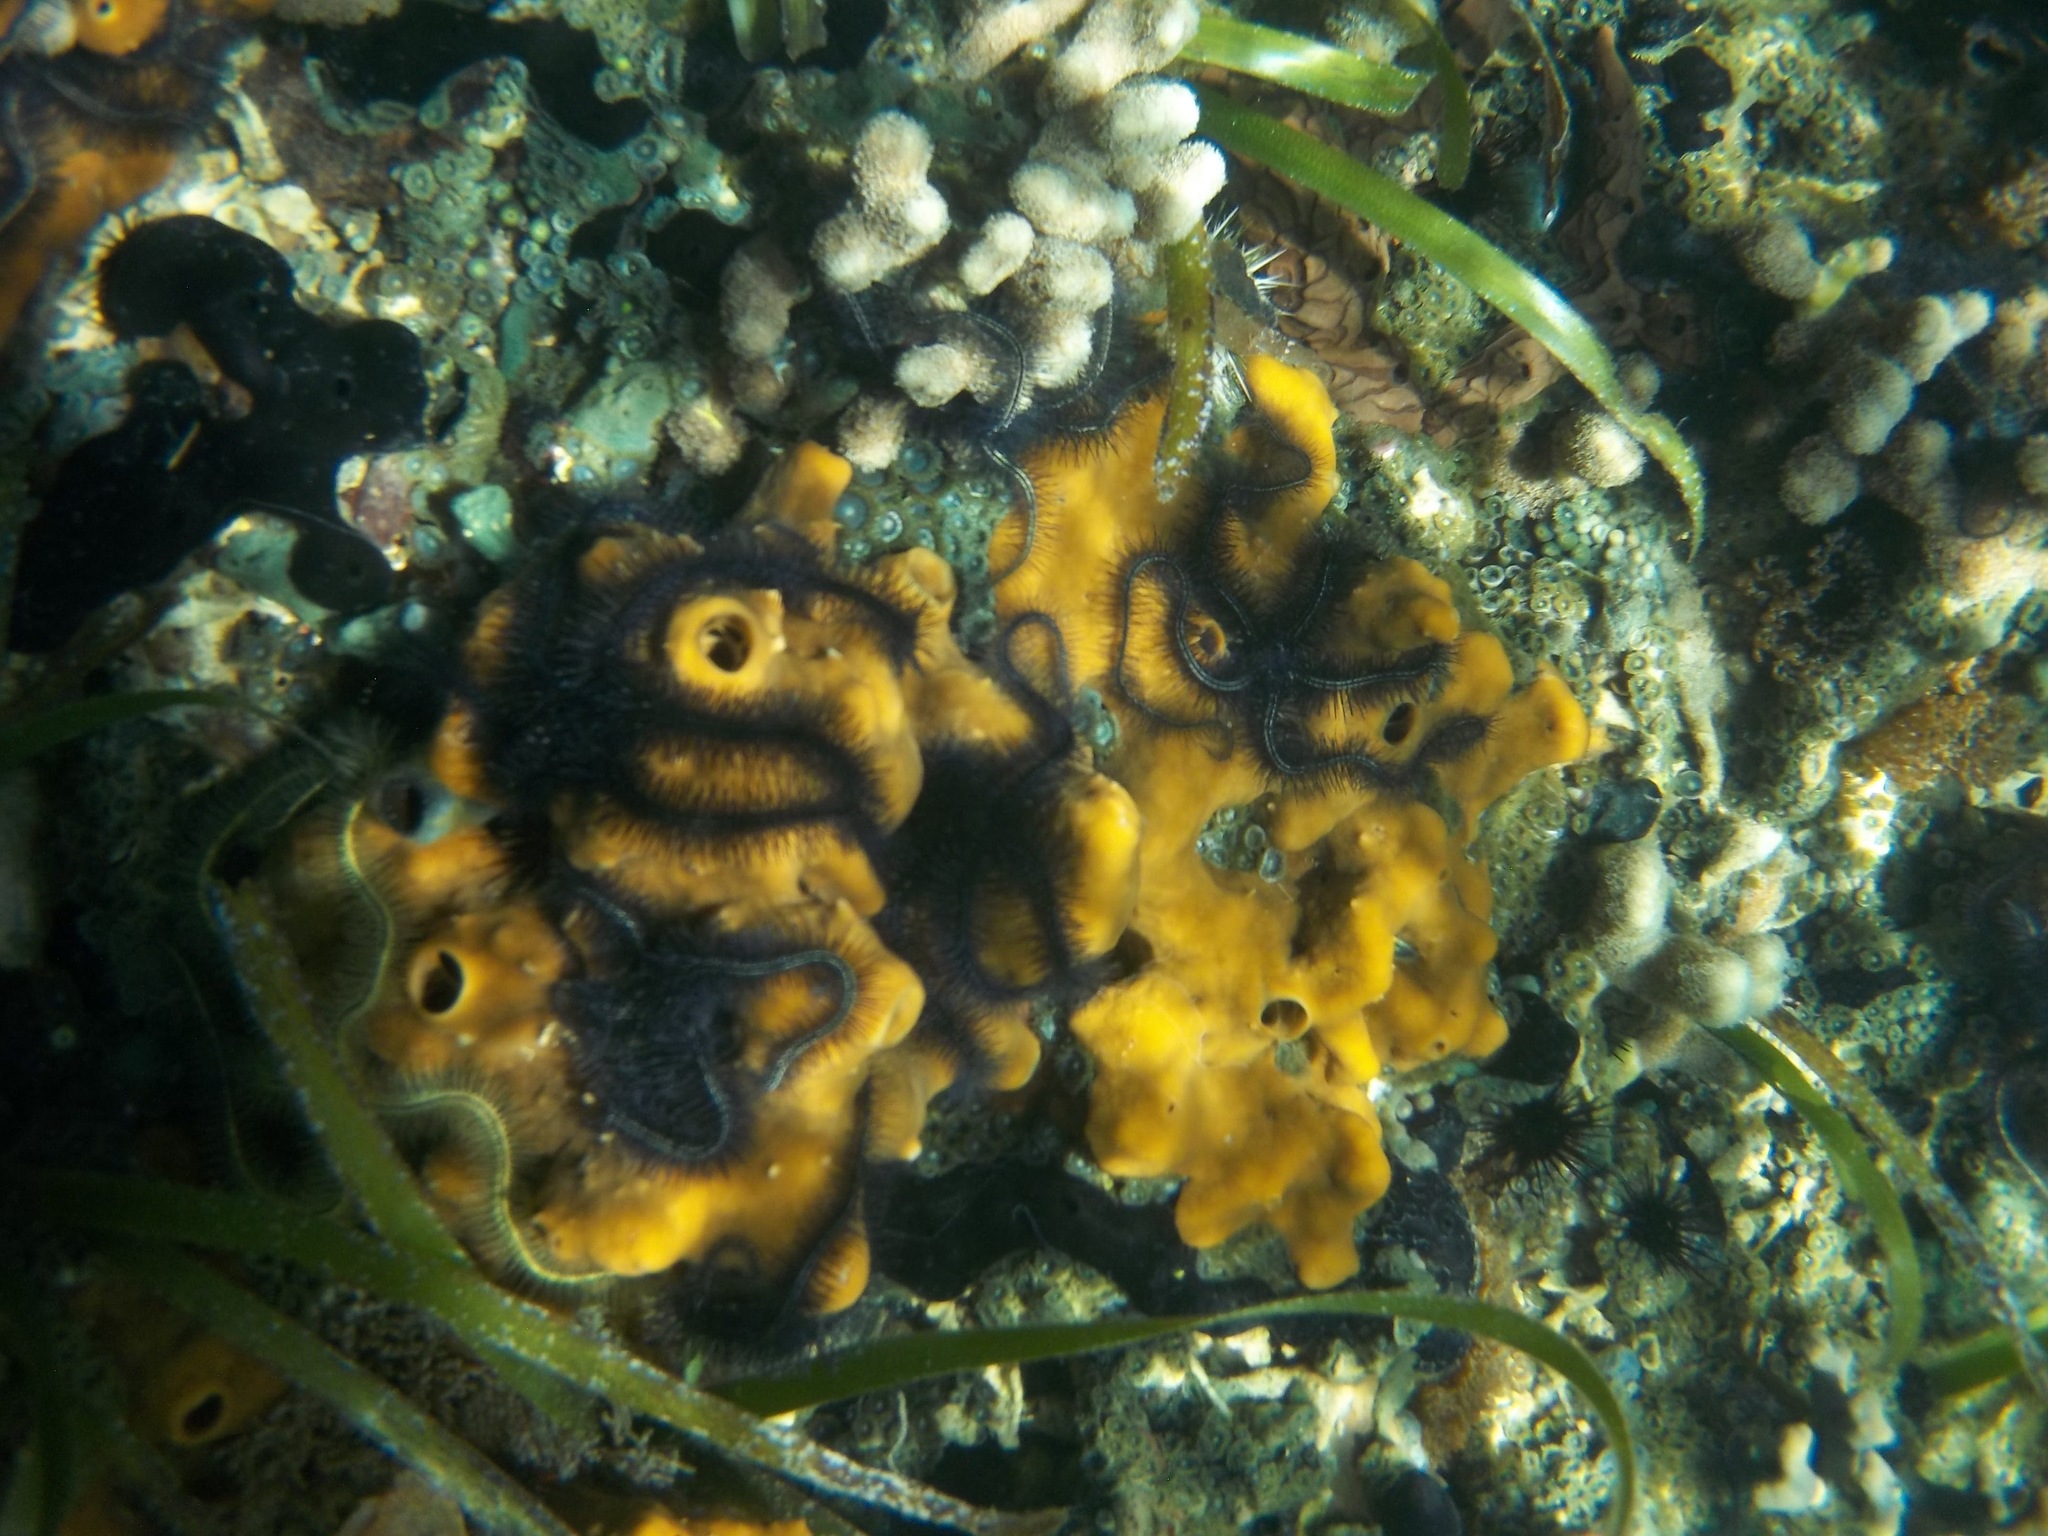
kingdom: Animalia
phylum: Echinodermata
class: Ophiuroidea
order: Amphilepidida
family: Ophiotrichidae
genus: Ophiothrix
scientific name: Ophiothrix suensonii
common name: Sponge brittle star
